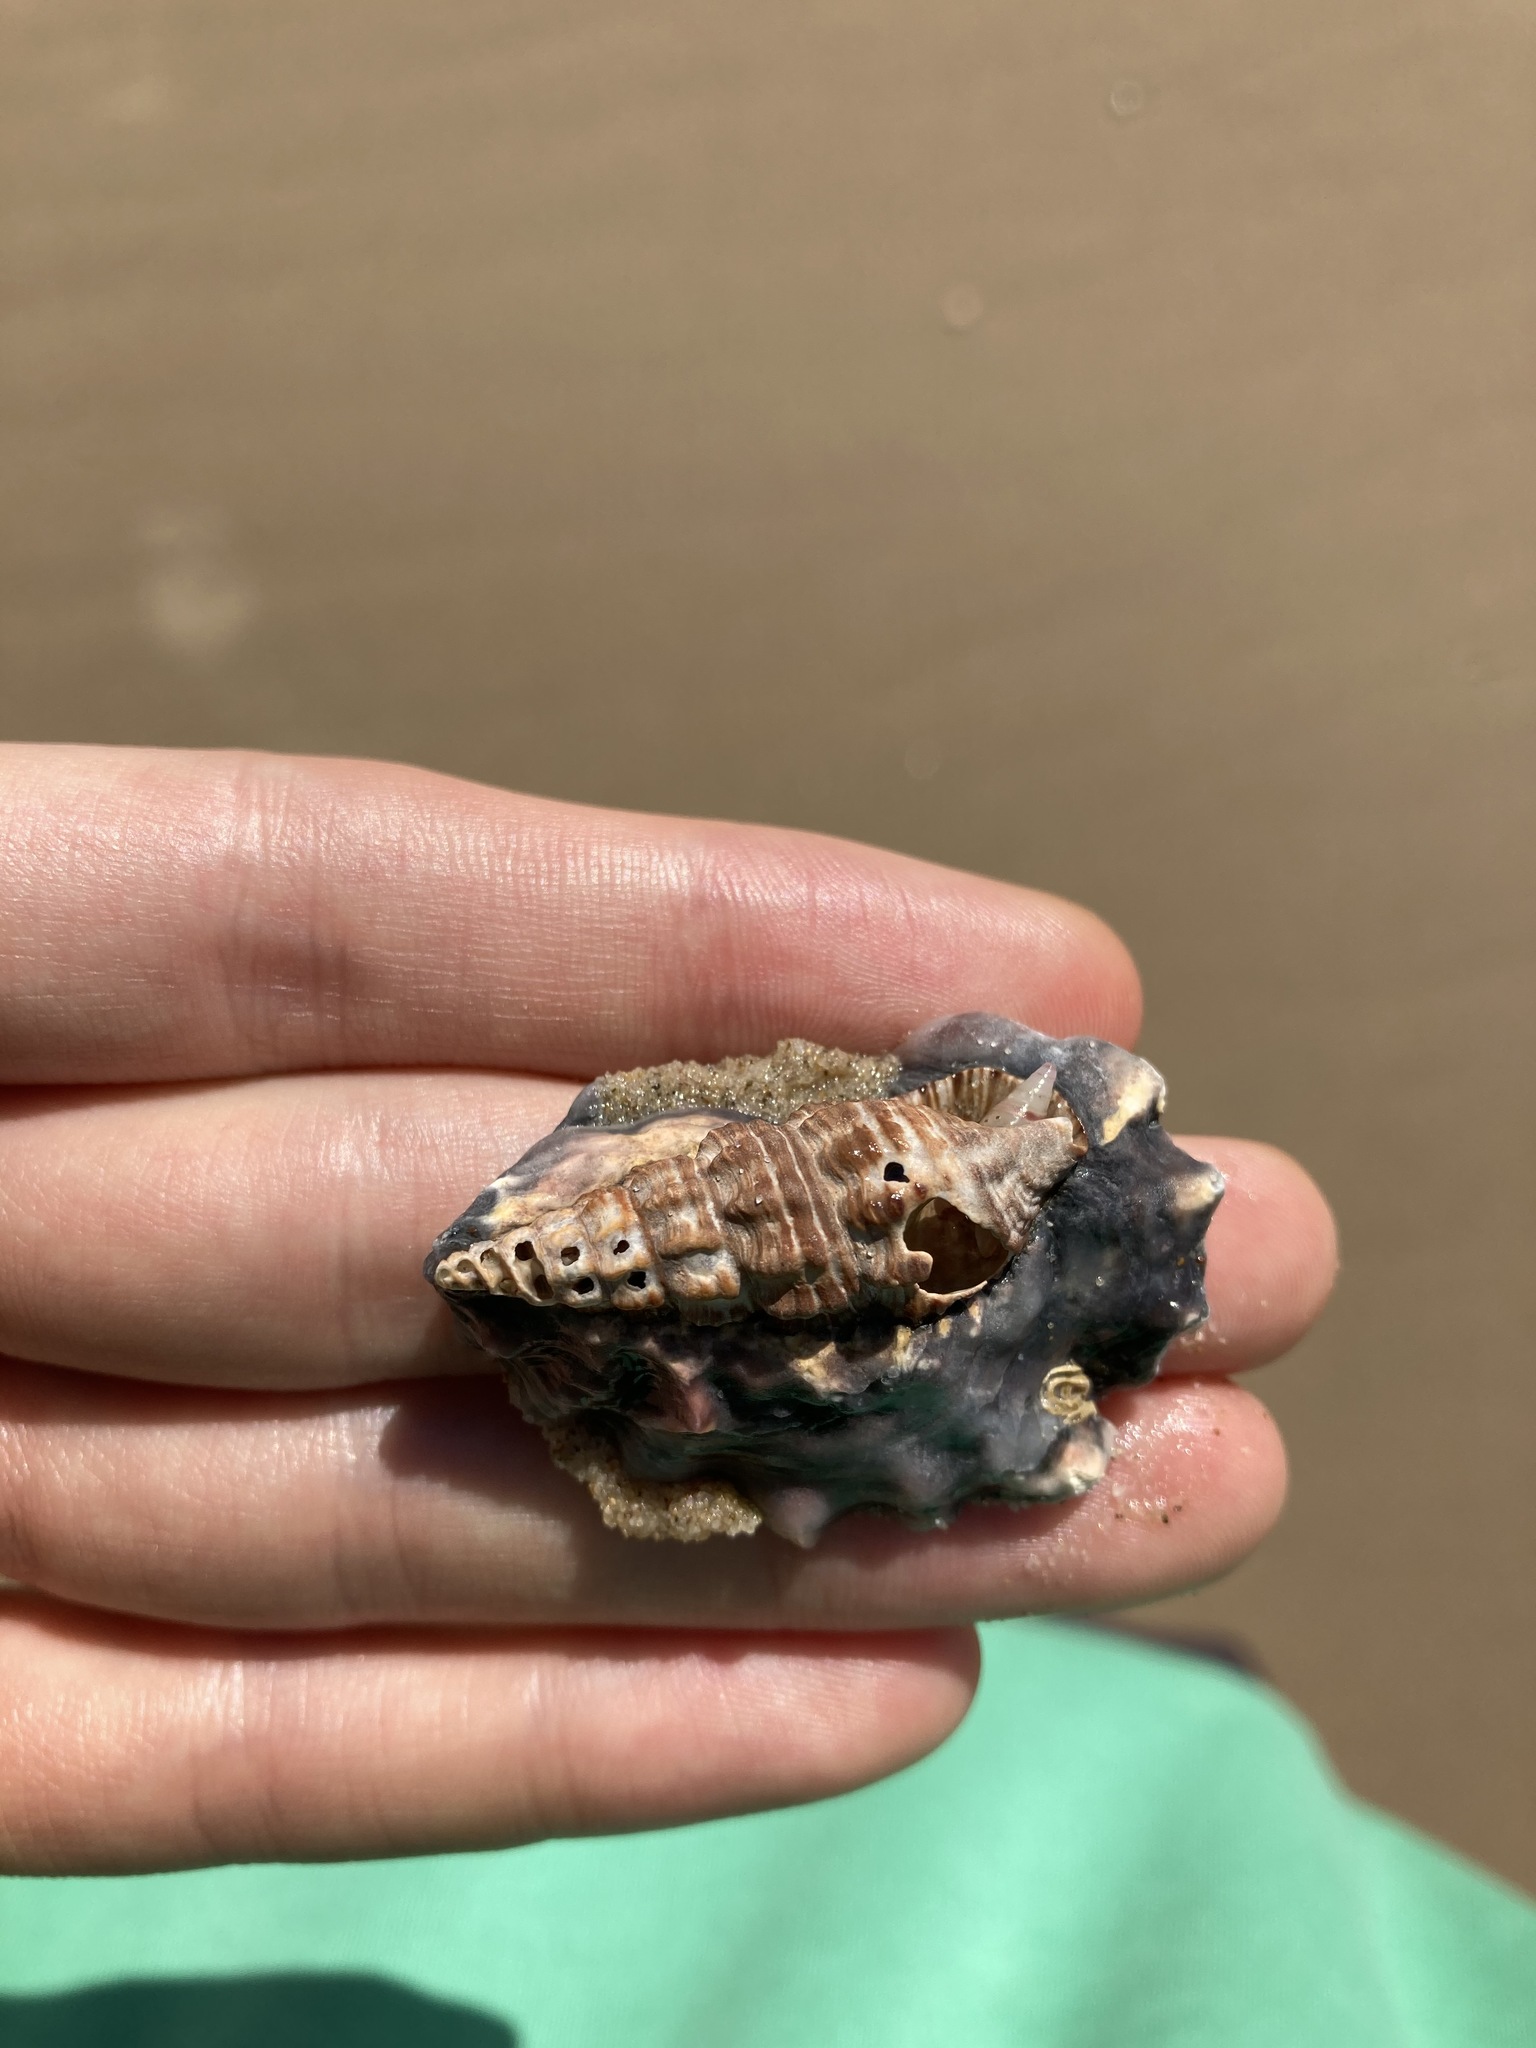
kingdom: Animalia
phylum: Mollusca
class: Gastropoda
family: Batillariidae
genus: Batillaria
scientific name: Batillaria australis
